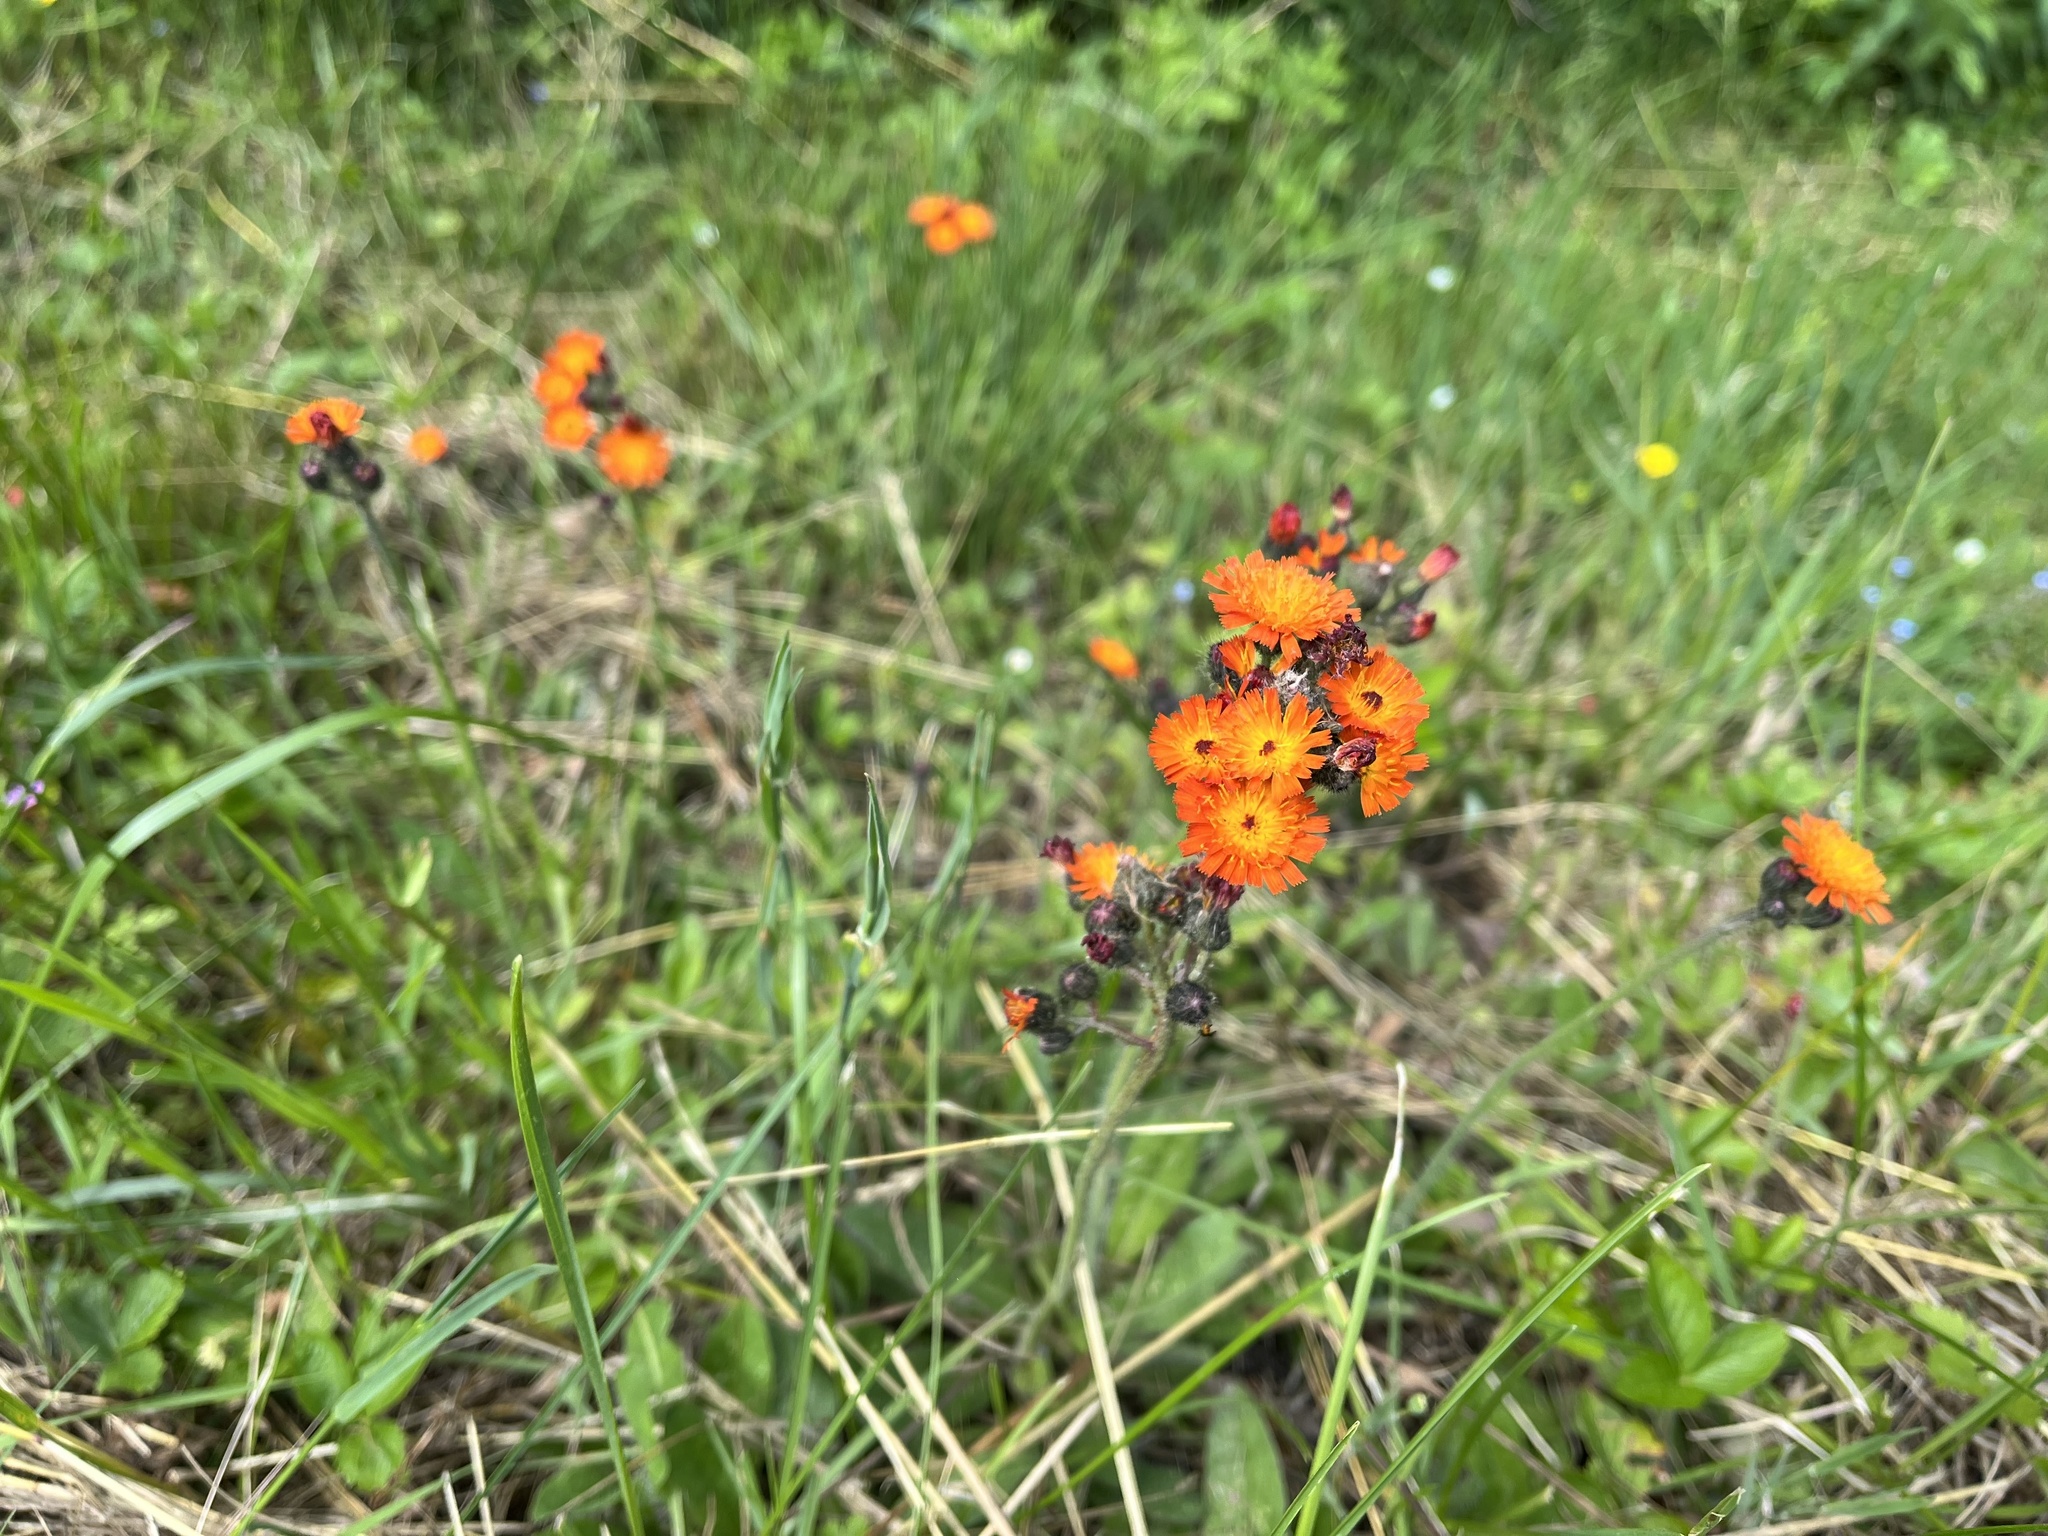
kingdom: Plantae
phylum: Tracheophyta
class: Magnoliopsida
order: Asterales
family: Asteraceae
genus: Pilosella
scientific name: Pilosella aurantiaca
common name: Fox-and-cubs
